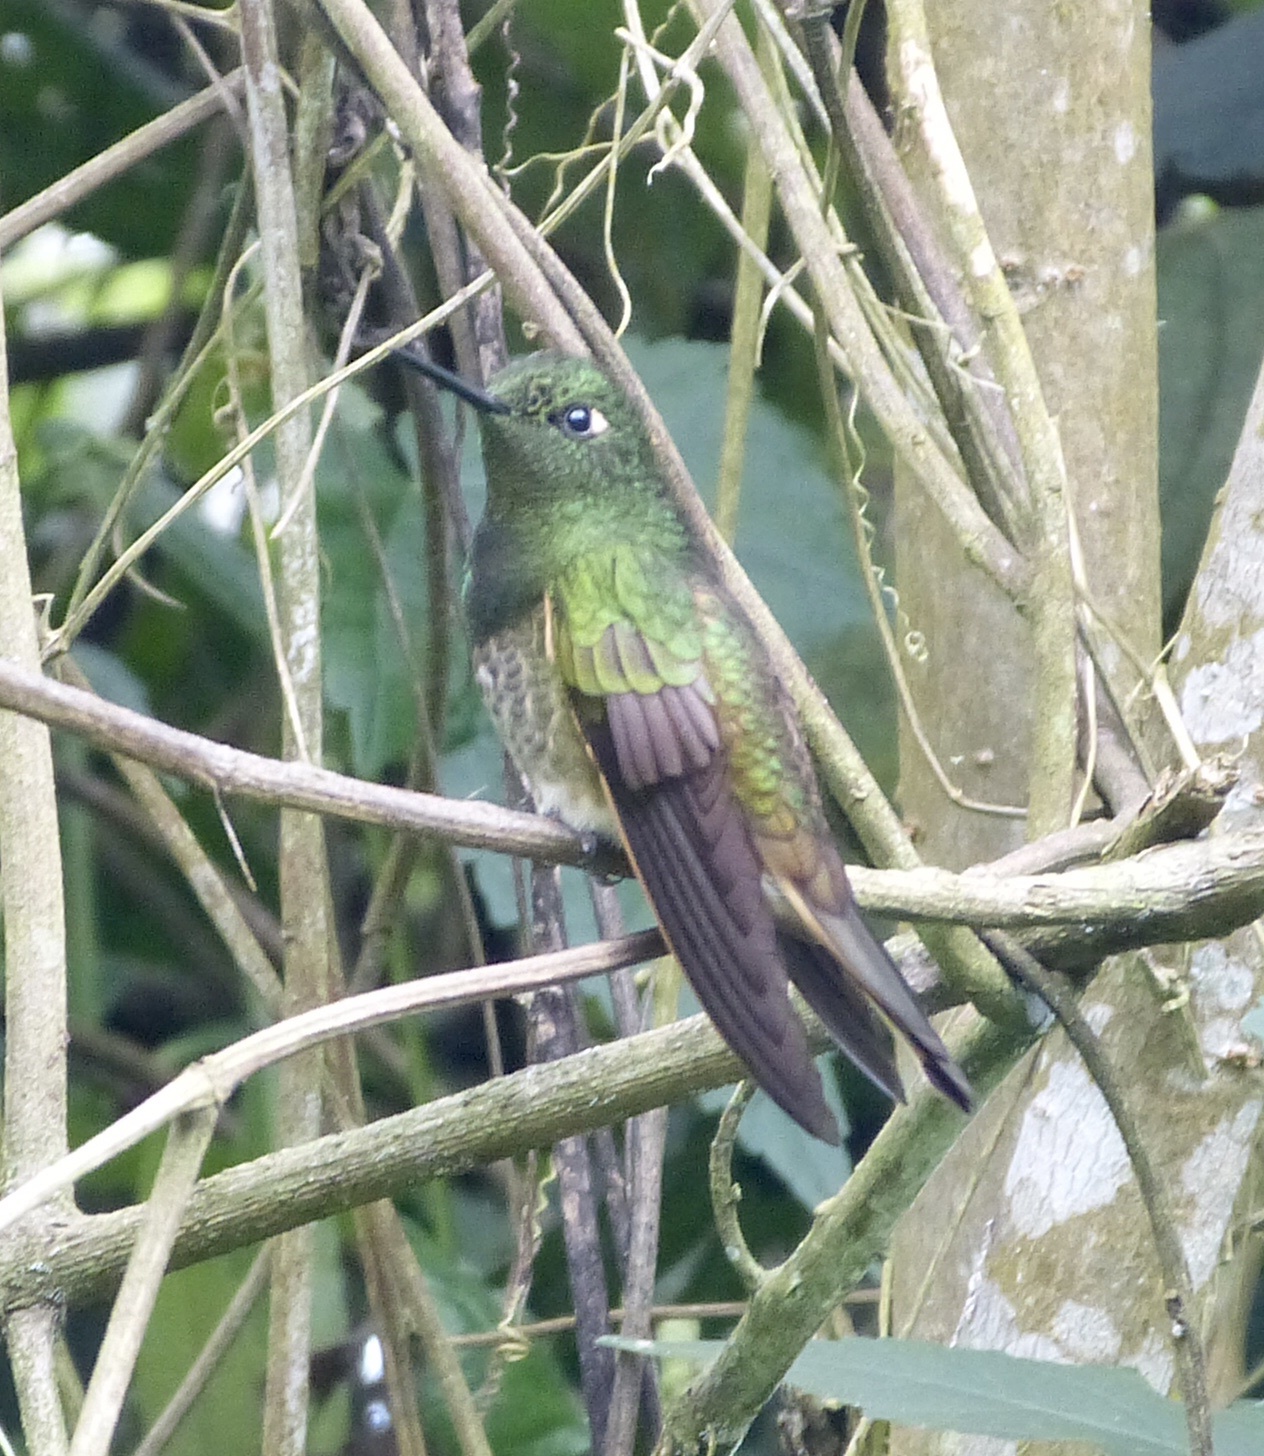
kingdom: Animalia
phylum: Chordata
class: Aves
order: Apodiformes
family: Trochilidae
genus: Boissonneaua
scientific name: Boissonneaua flavescens
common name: Buff-tailed coronet
